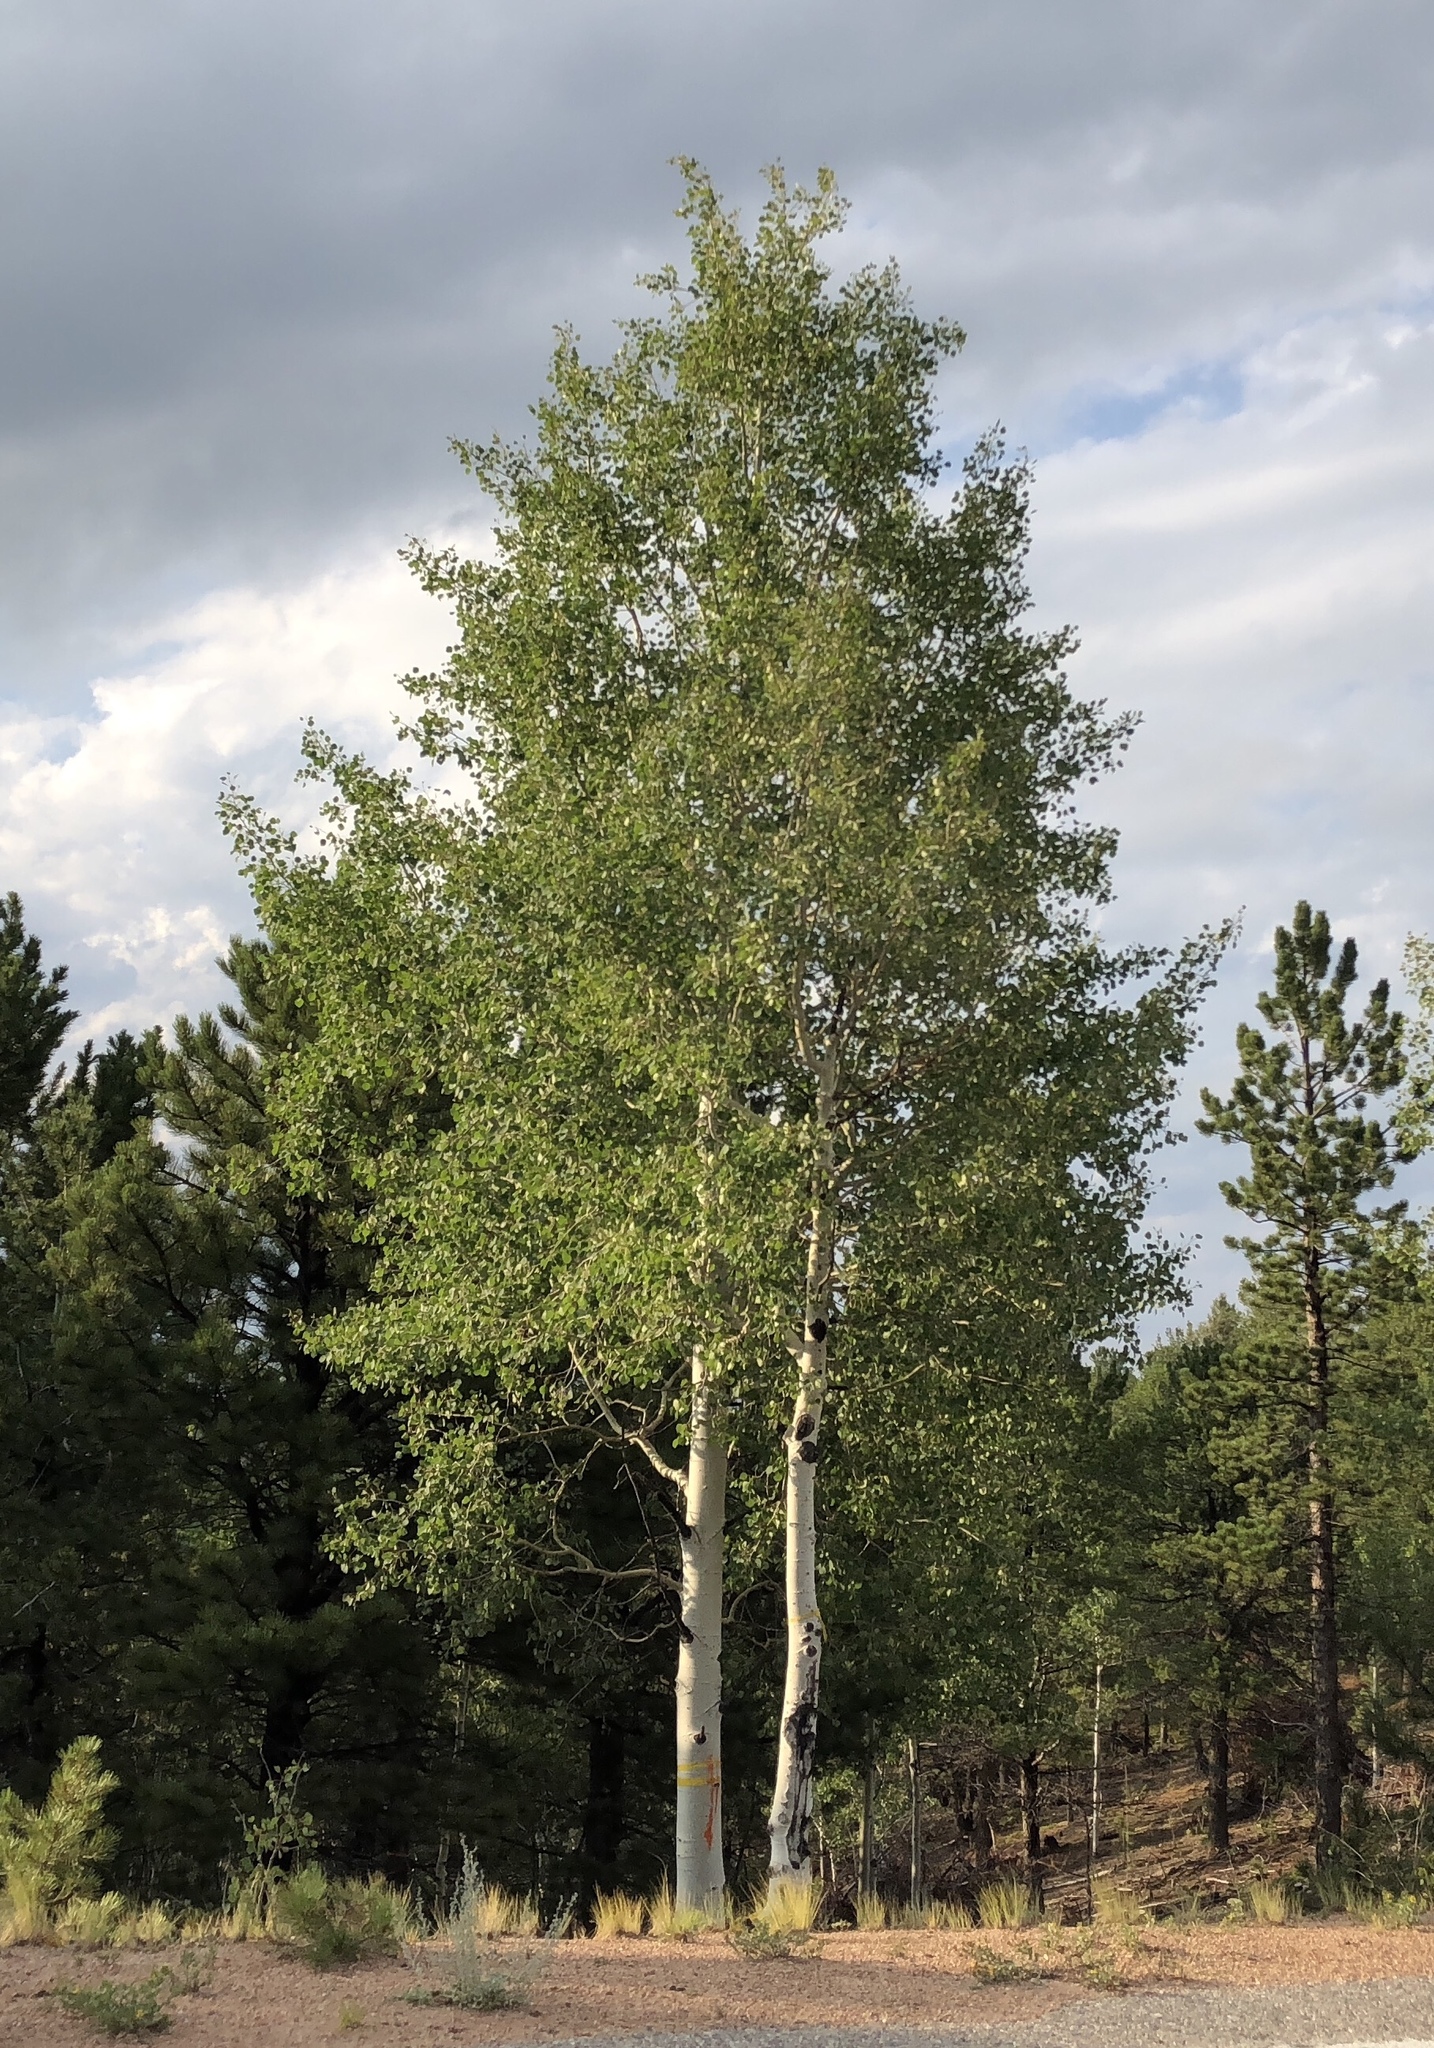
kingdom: Plantae
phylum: Tracheophyta
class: Magnoliopsida
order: Malpighiales
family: Salicaceae
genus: Populus
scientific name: Populus tremuloides
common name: Quaking aspen
